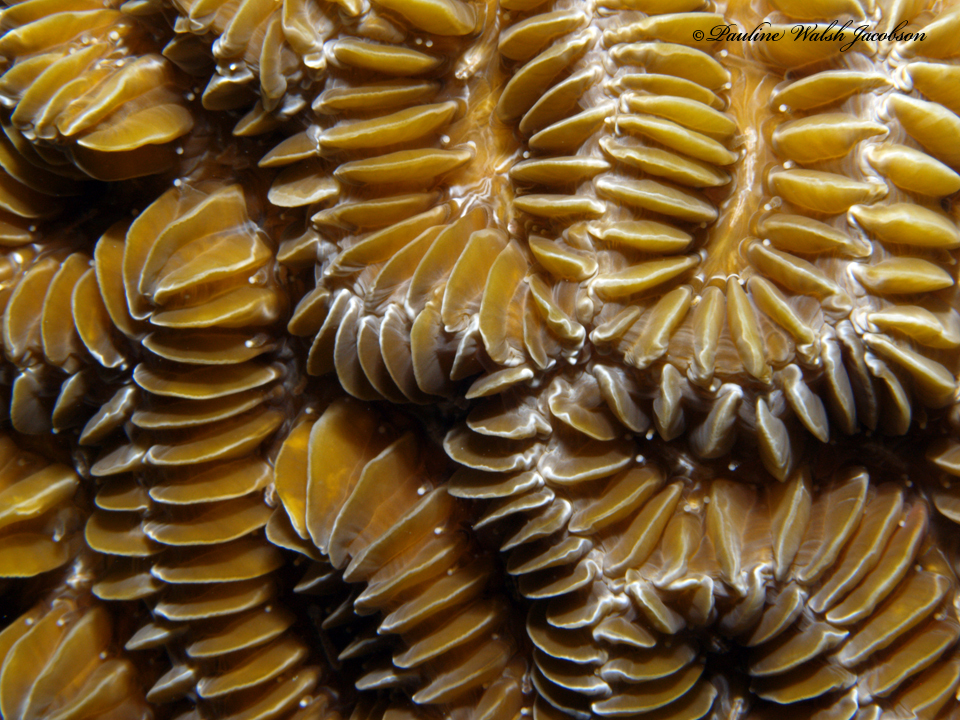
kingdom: Animalia
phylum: Cnidaria
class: Anthozoa
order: Scleractinia
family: Meandrinidae
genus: Meandrina
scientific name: Meandrina meandrites
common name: Maze coral
